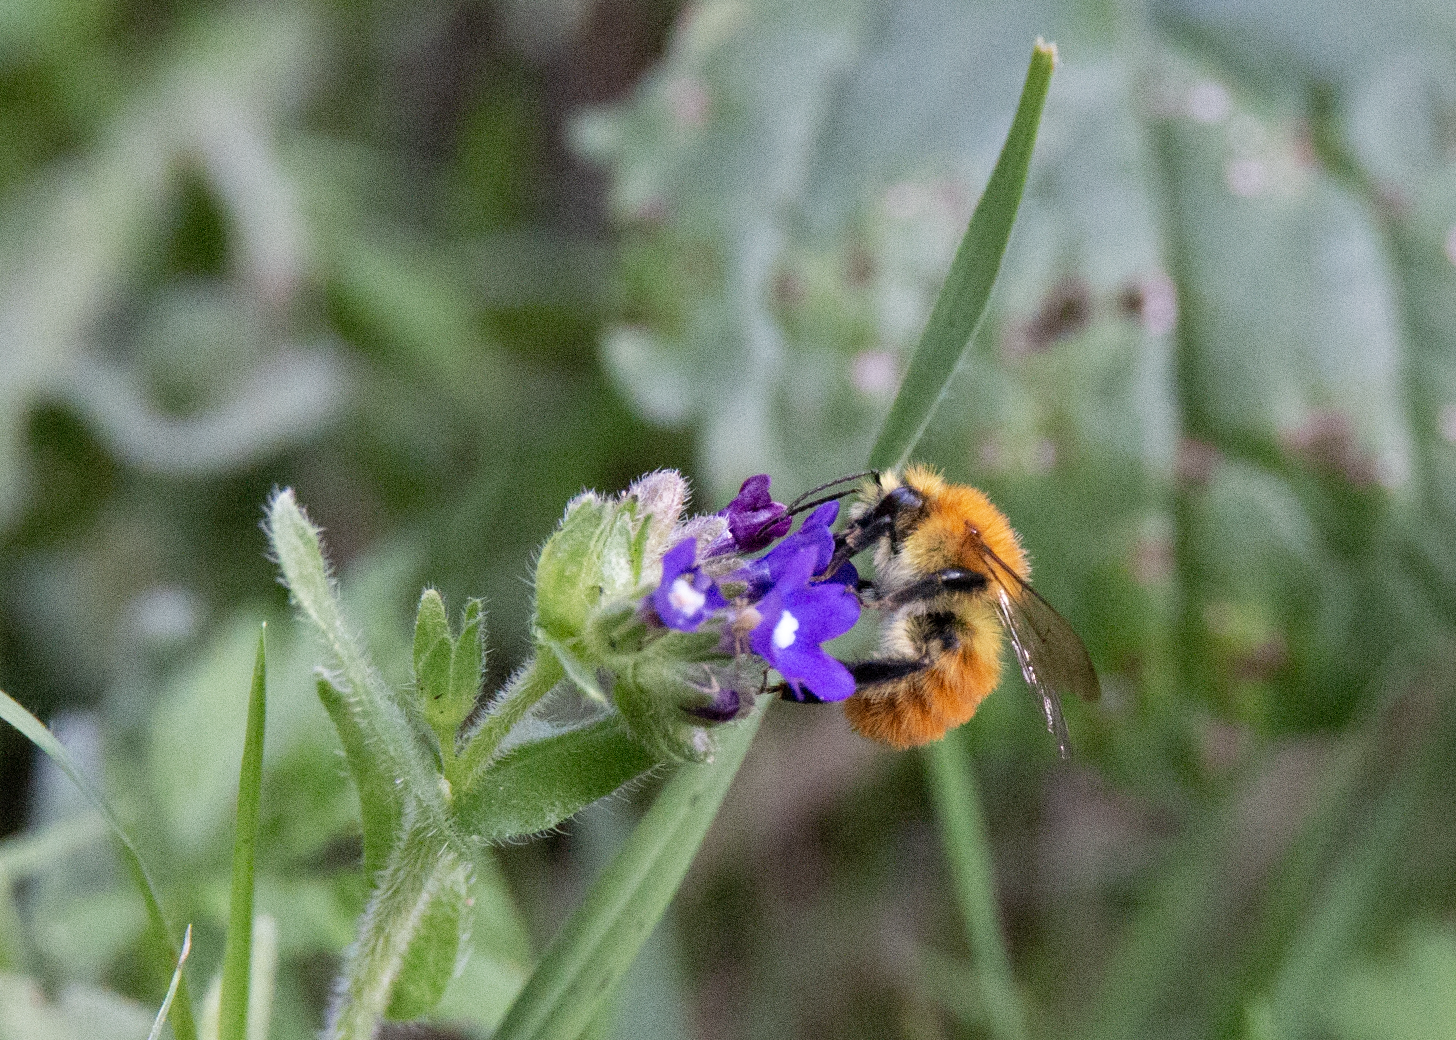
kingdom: Animalia
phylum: Arthropoda
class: Insecta
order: Hymenoptera
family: Apidae
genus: Bombus
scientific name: Bombus pascuorum
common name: Common carder bee
